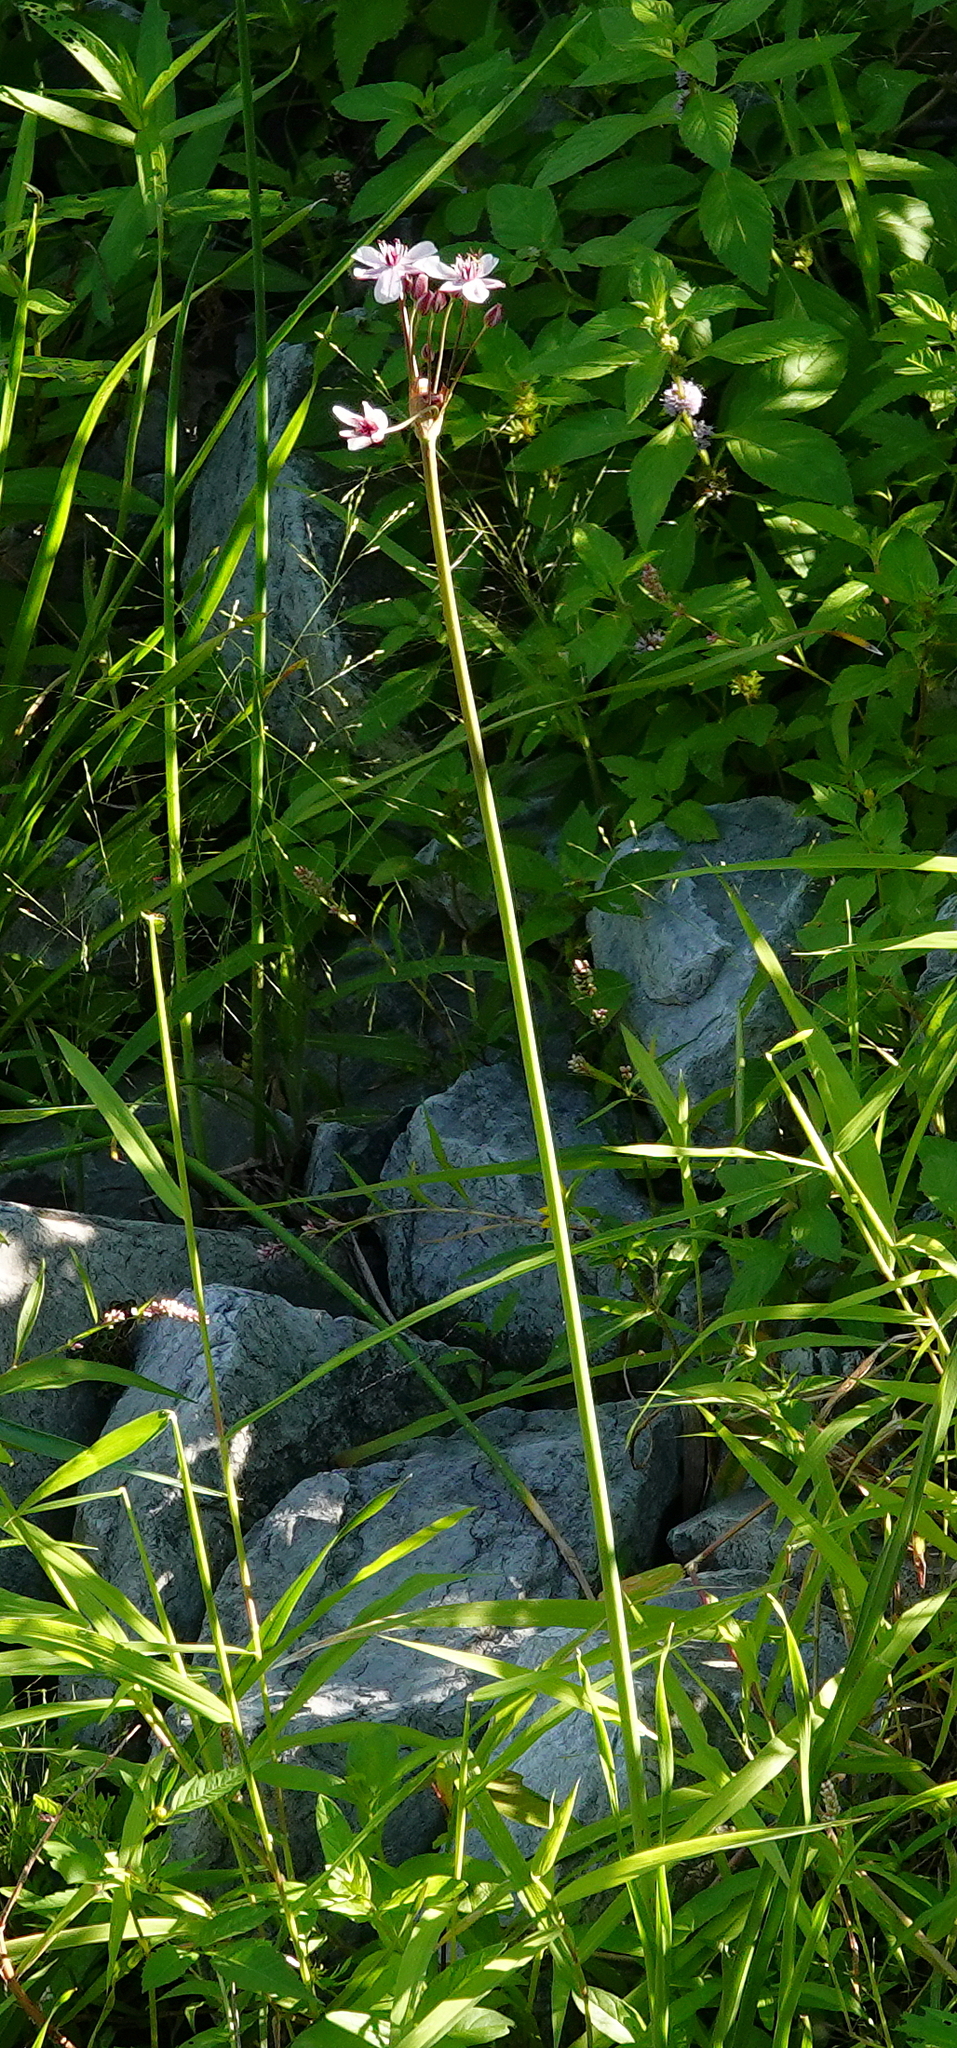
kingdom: Plantae
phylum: Tracheophyta
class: Liliopsida
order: Alismatales
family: Butomaceae
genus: Butomus
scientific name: Butomus umbellatus
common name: Flowering-rush
